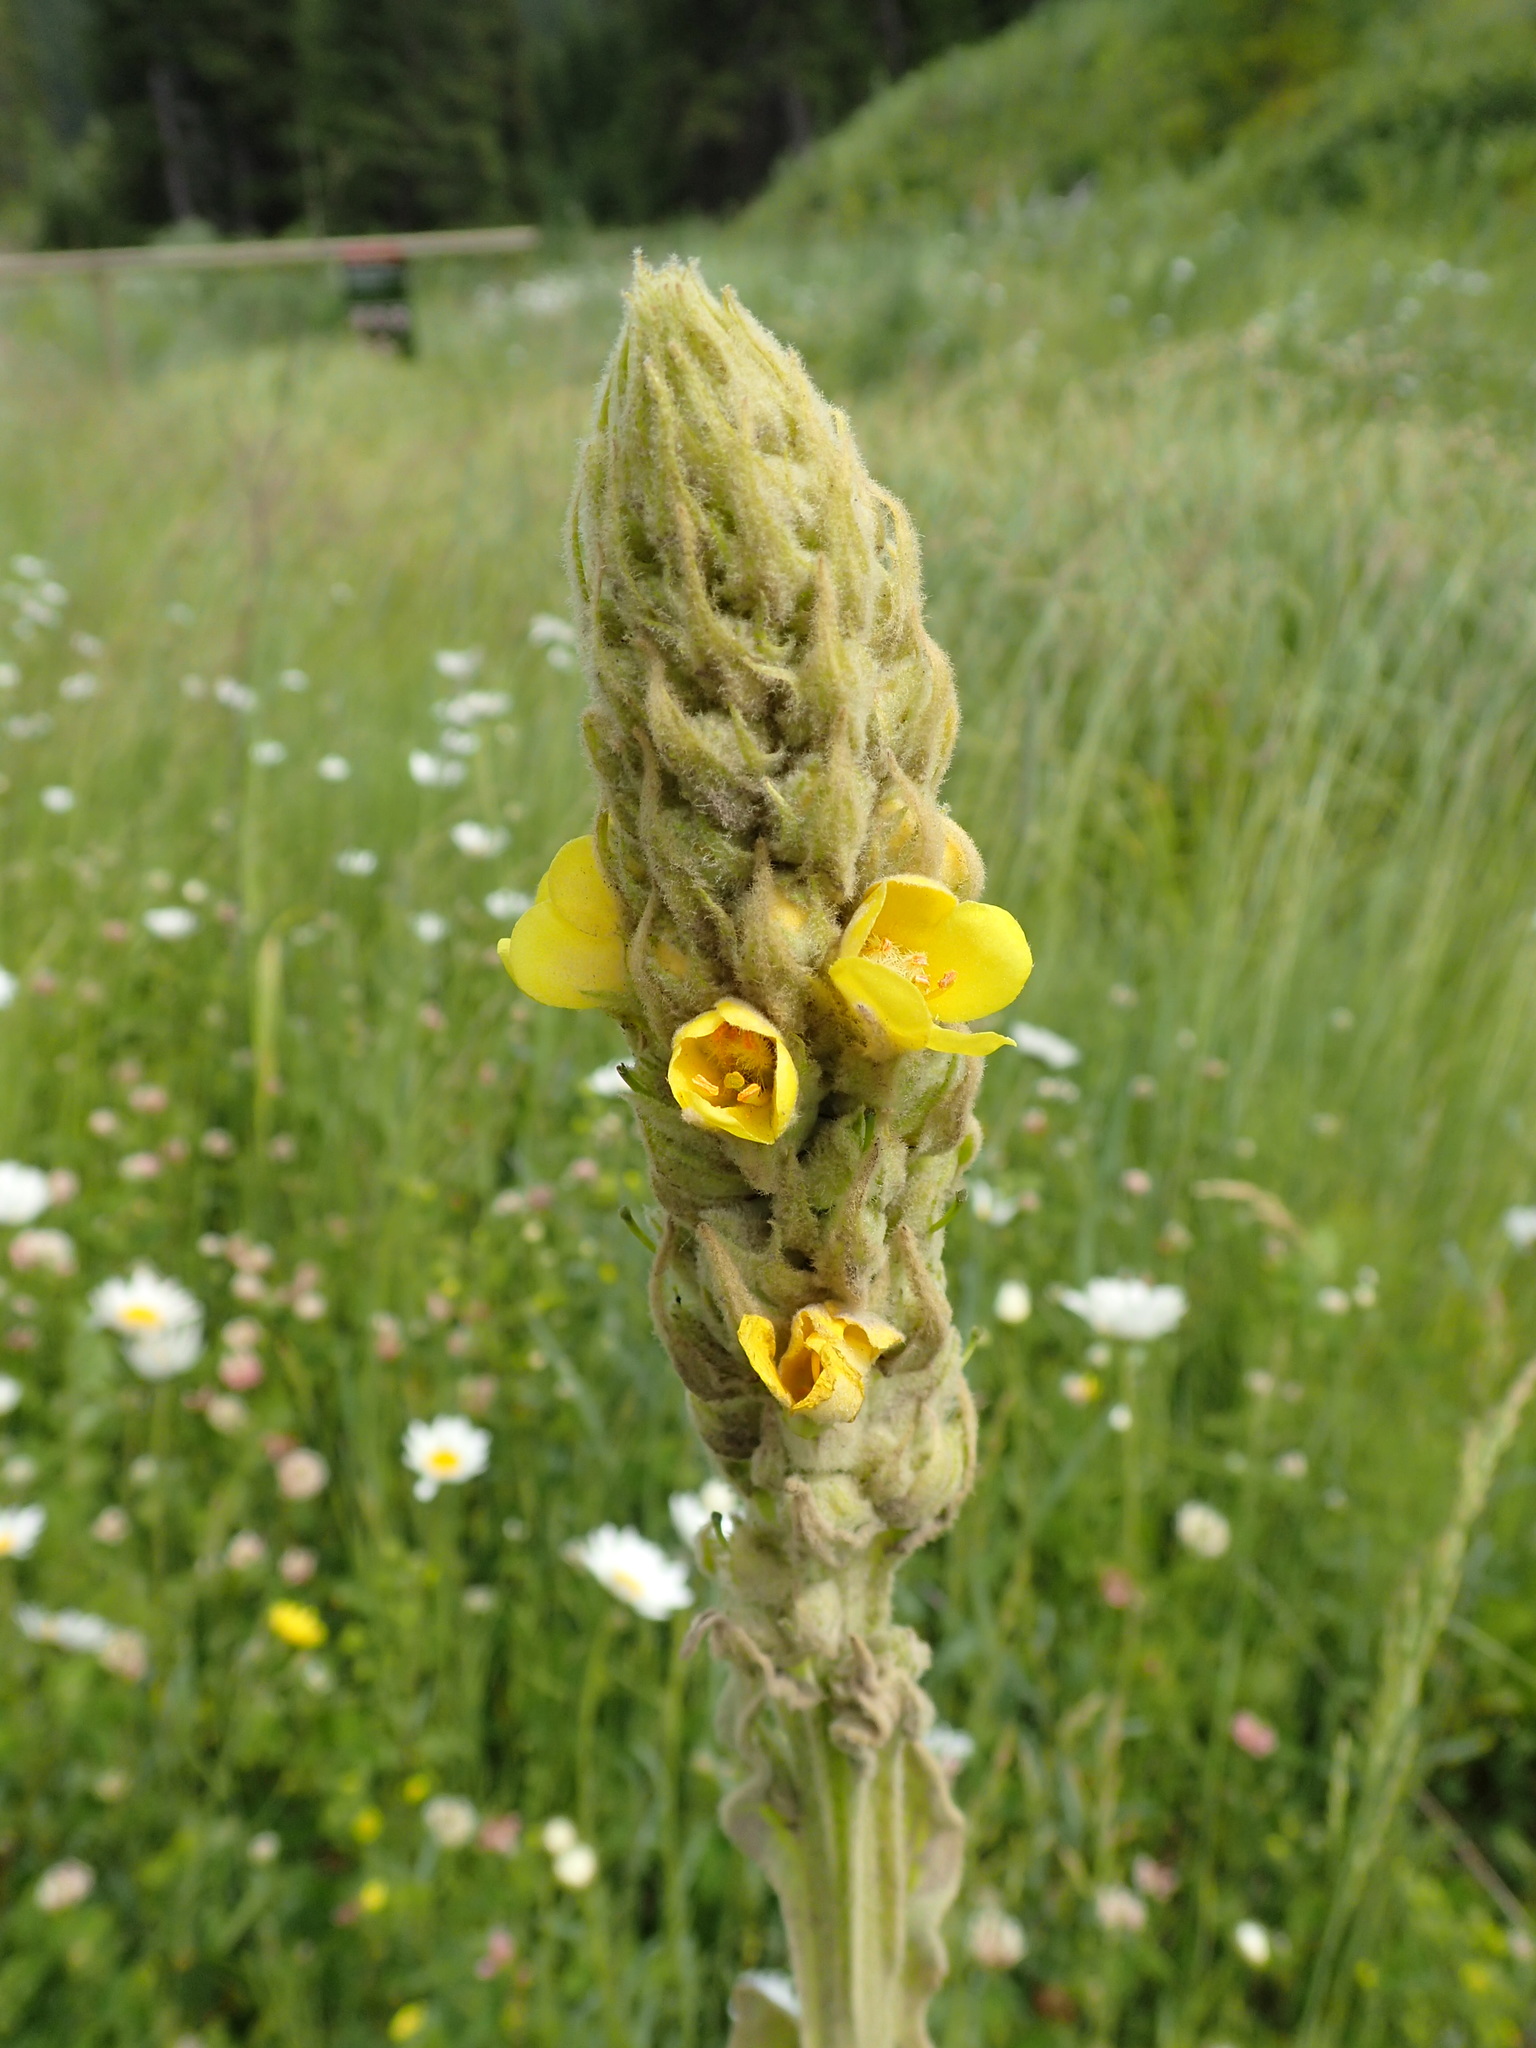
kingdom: Plantae
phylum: Tracheophyta
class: Magnoliopsida
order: Lamiales
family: Scrophulariaceae
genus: Verbascum
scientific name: Verbascum thapsus
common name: Common mullein
